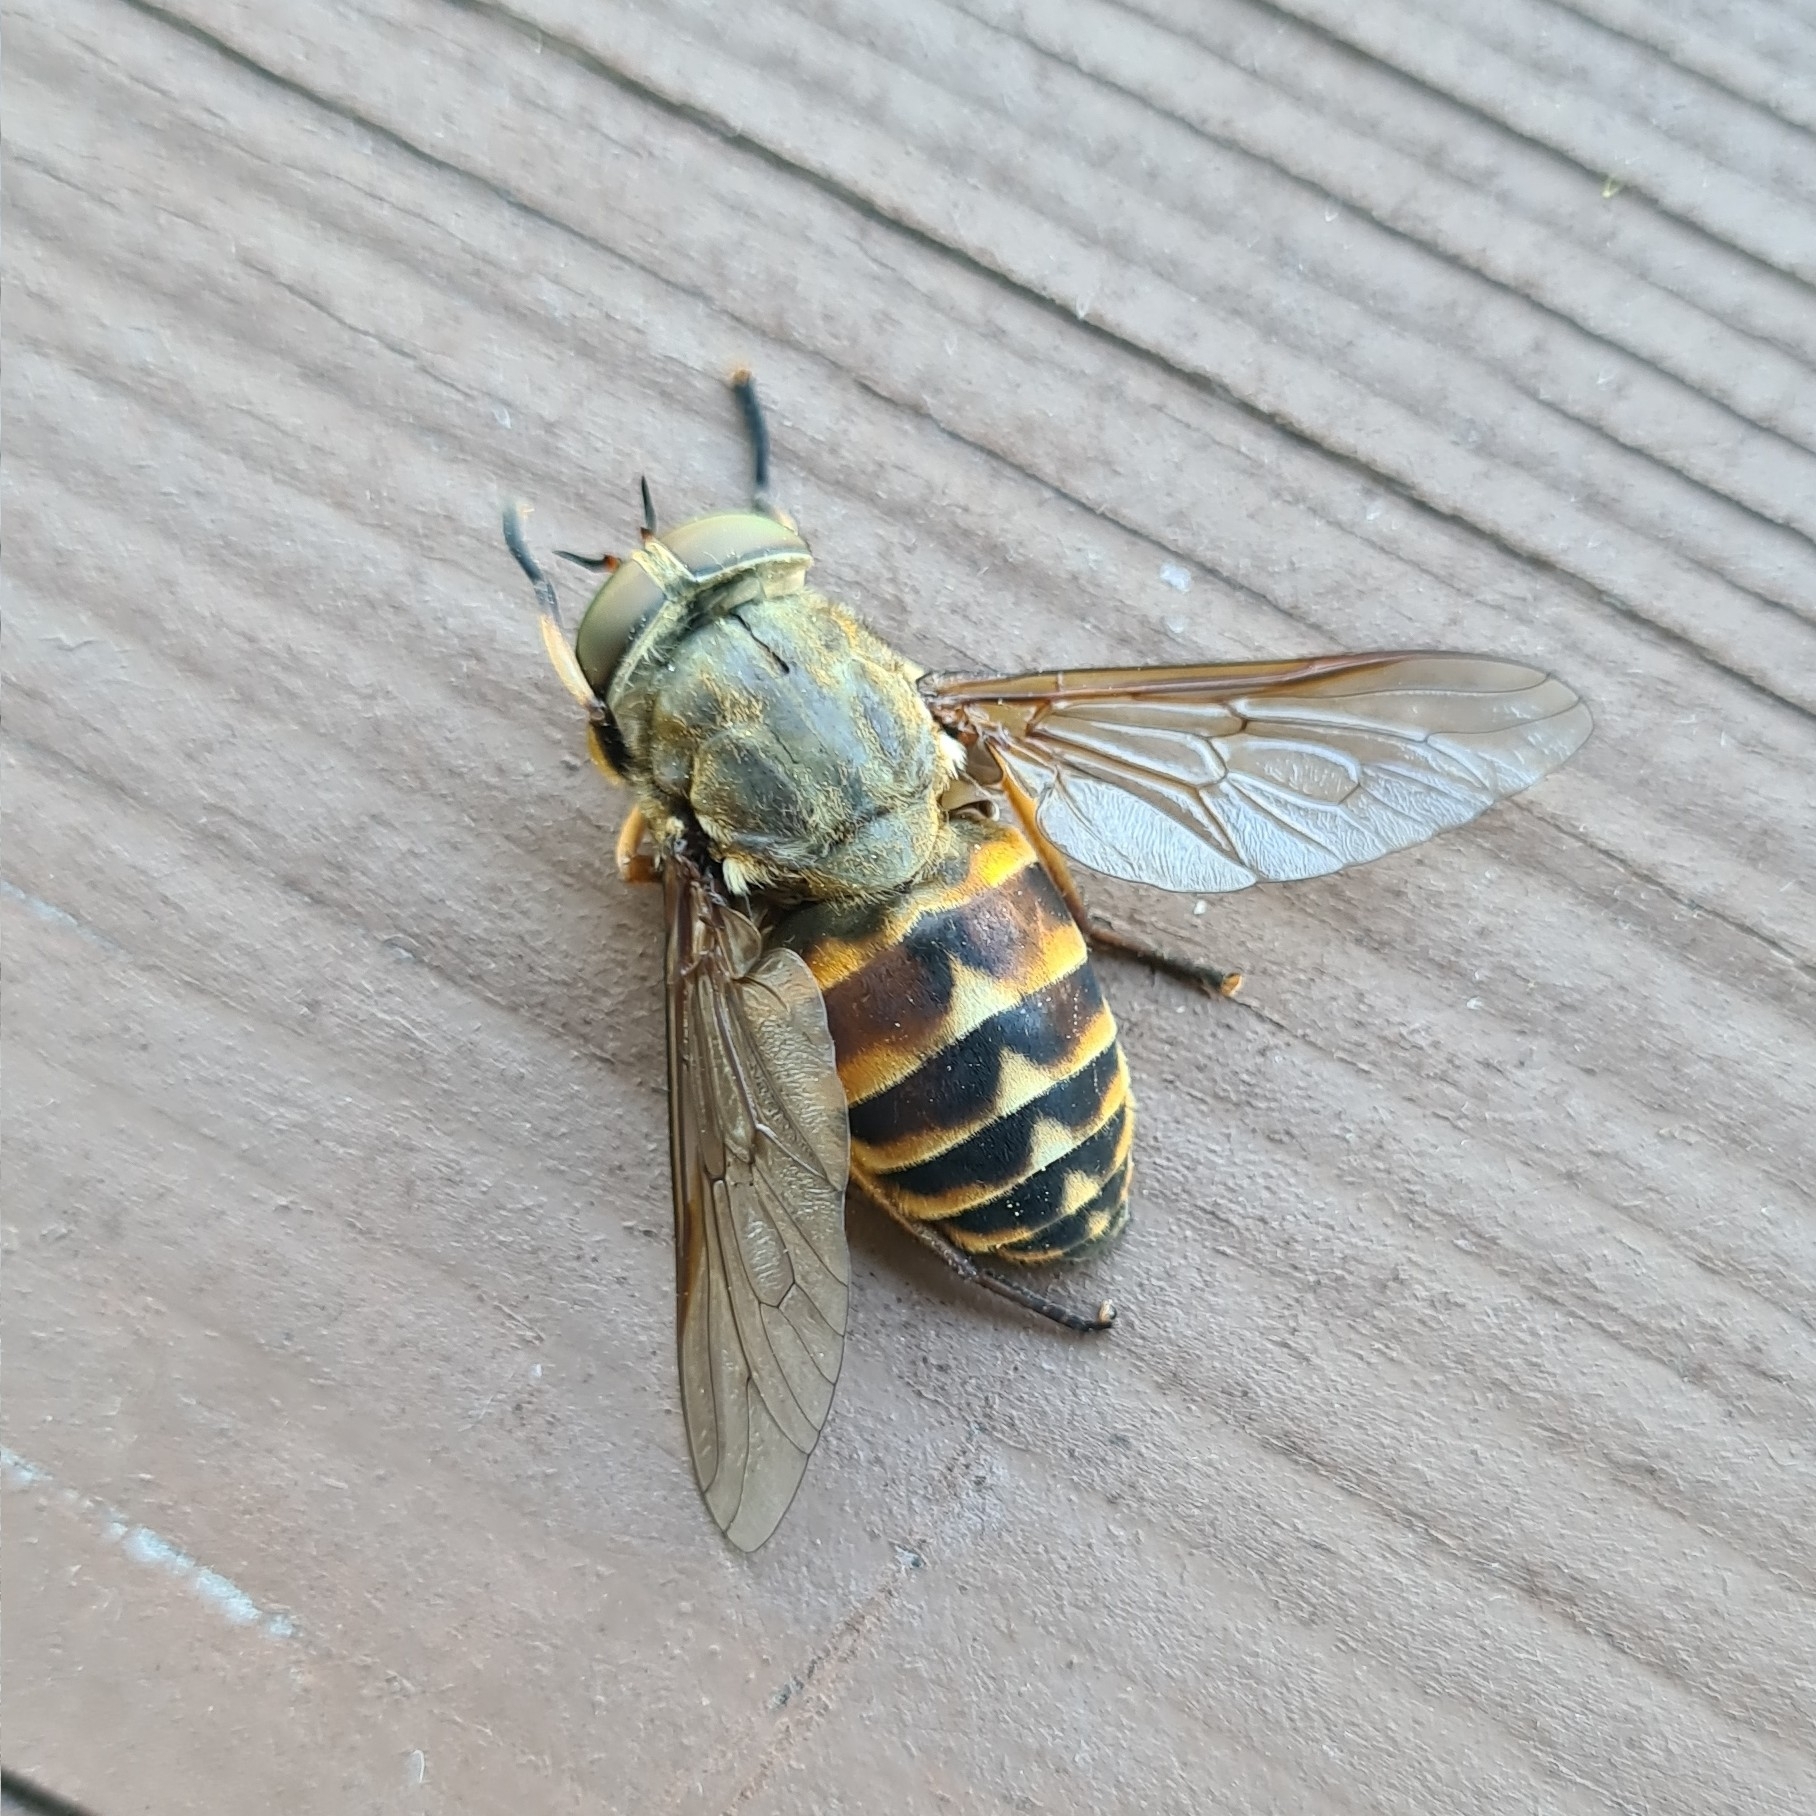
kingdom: Animalia
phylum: Arthropoda
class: Insecta
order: Diptera
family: Tabanidae
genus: Tabanus
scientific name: Tabanus sudeticus
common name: Dark giant horsefly
